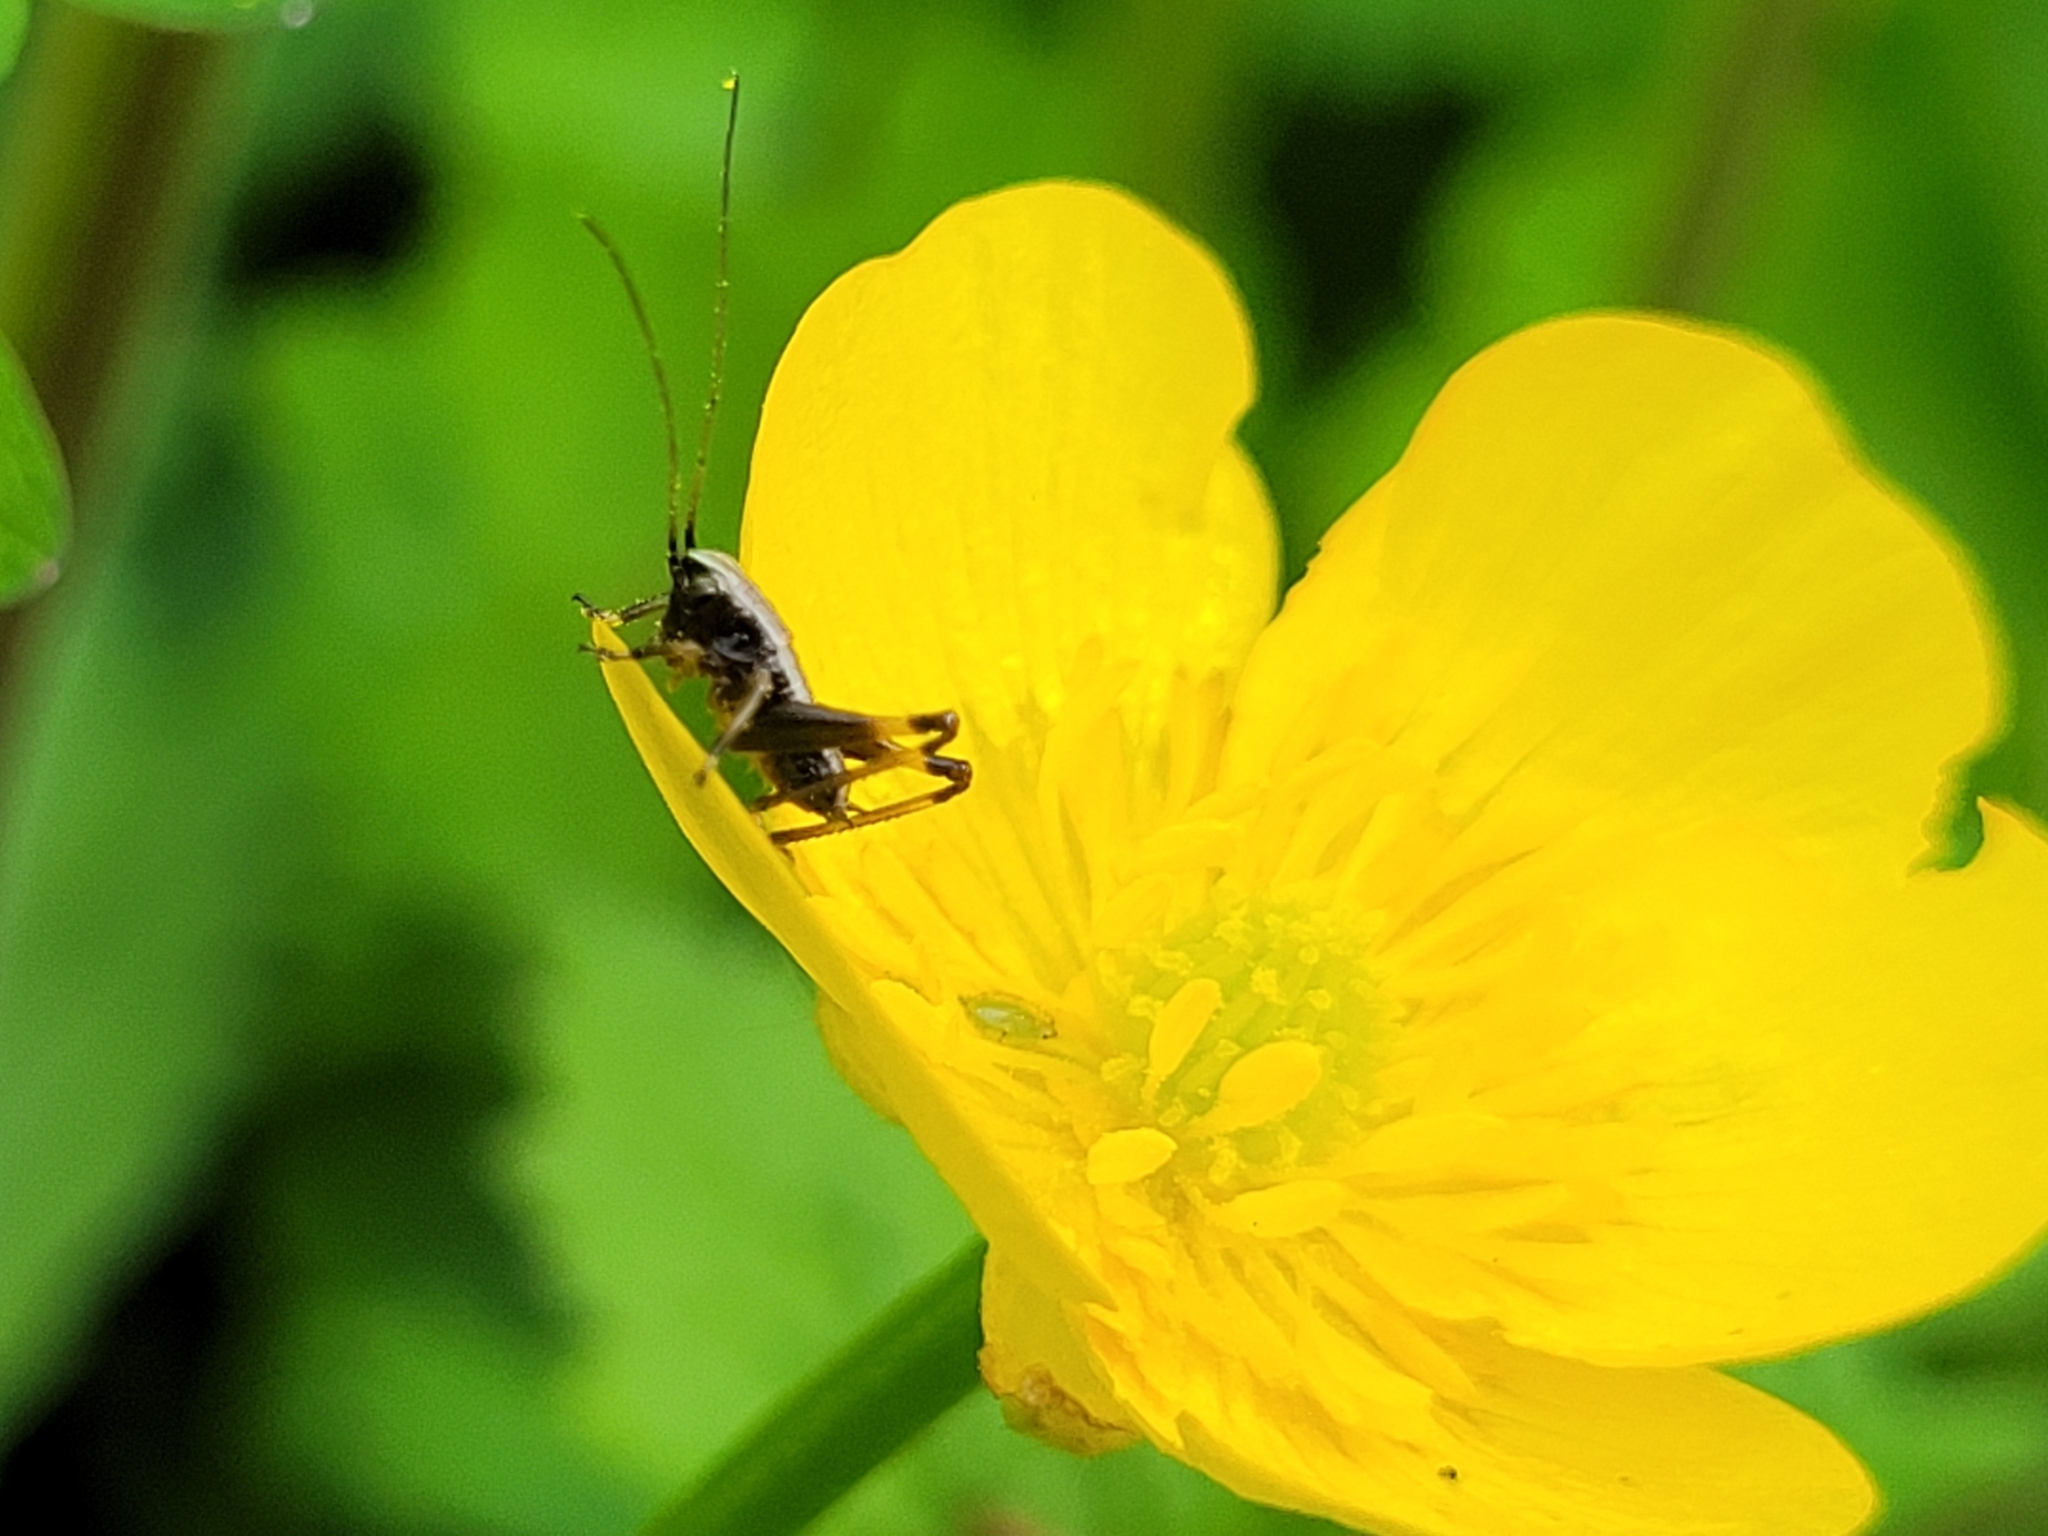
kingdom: Animalia
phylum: Arthropoda
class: Insecta
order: Orthoptera
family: Tettigoniidae
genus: Pholidoptera
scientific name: Pholidoptera griseoaptera
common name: Dark bush-cricket
